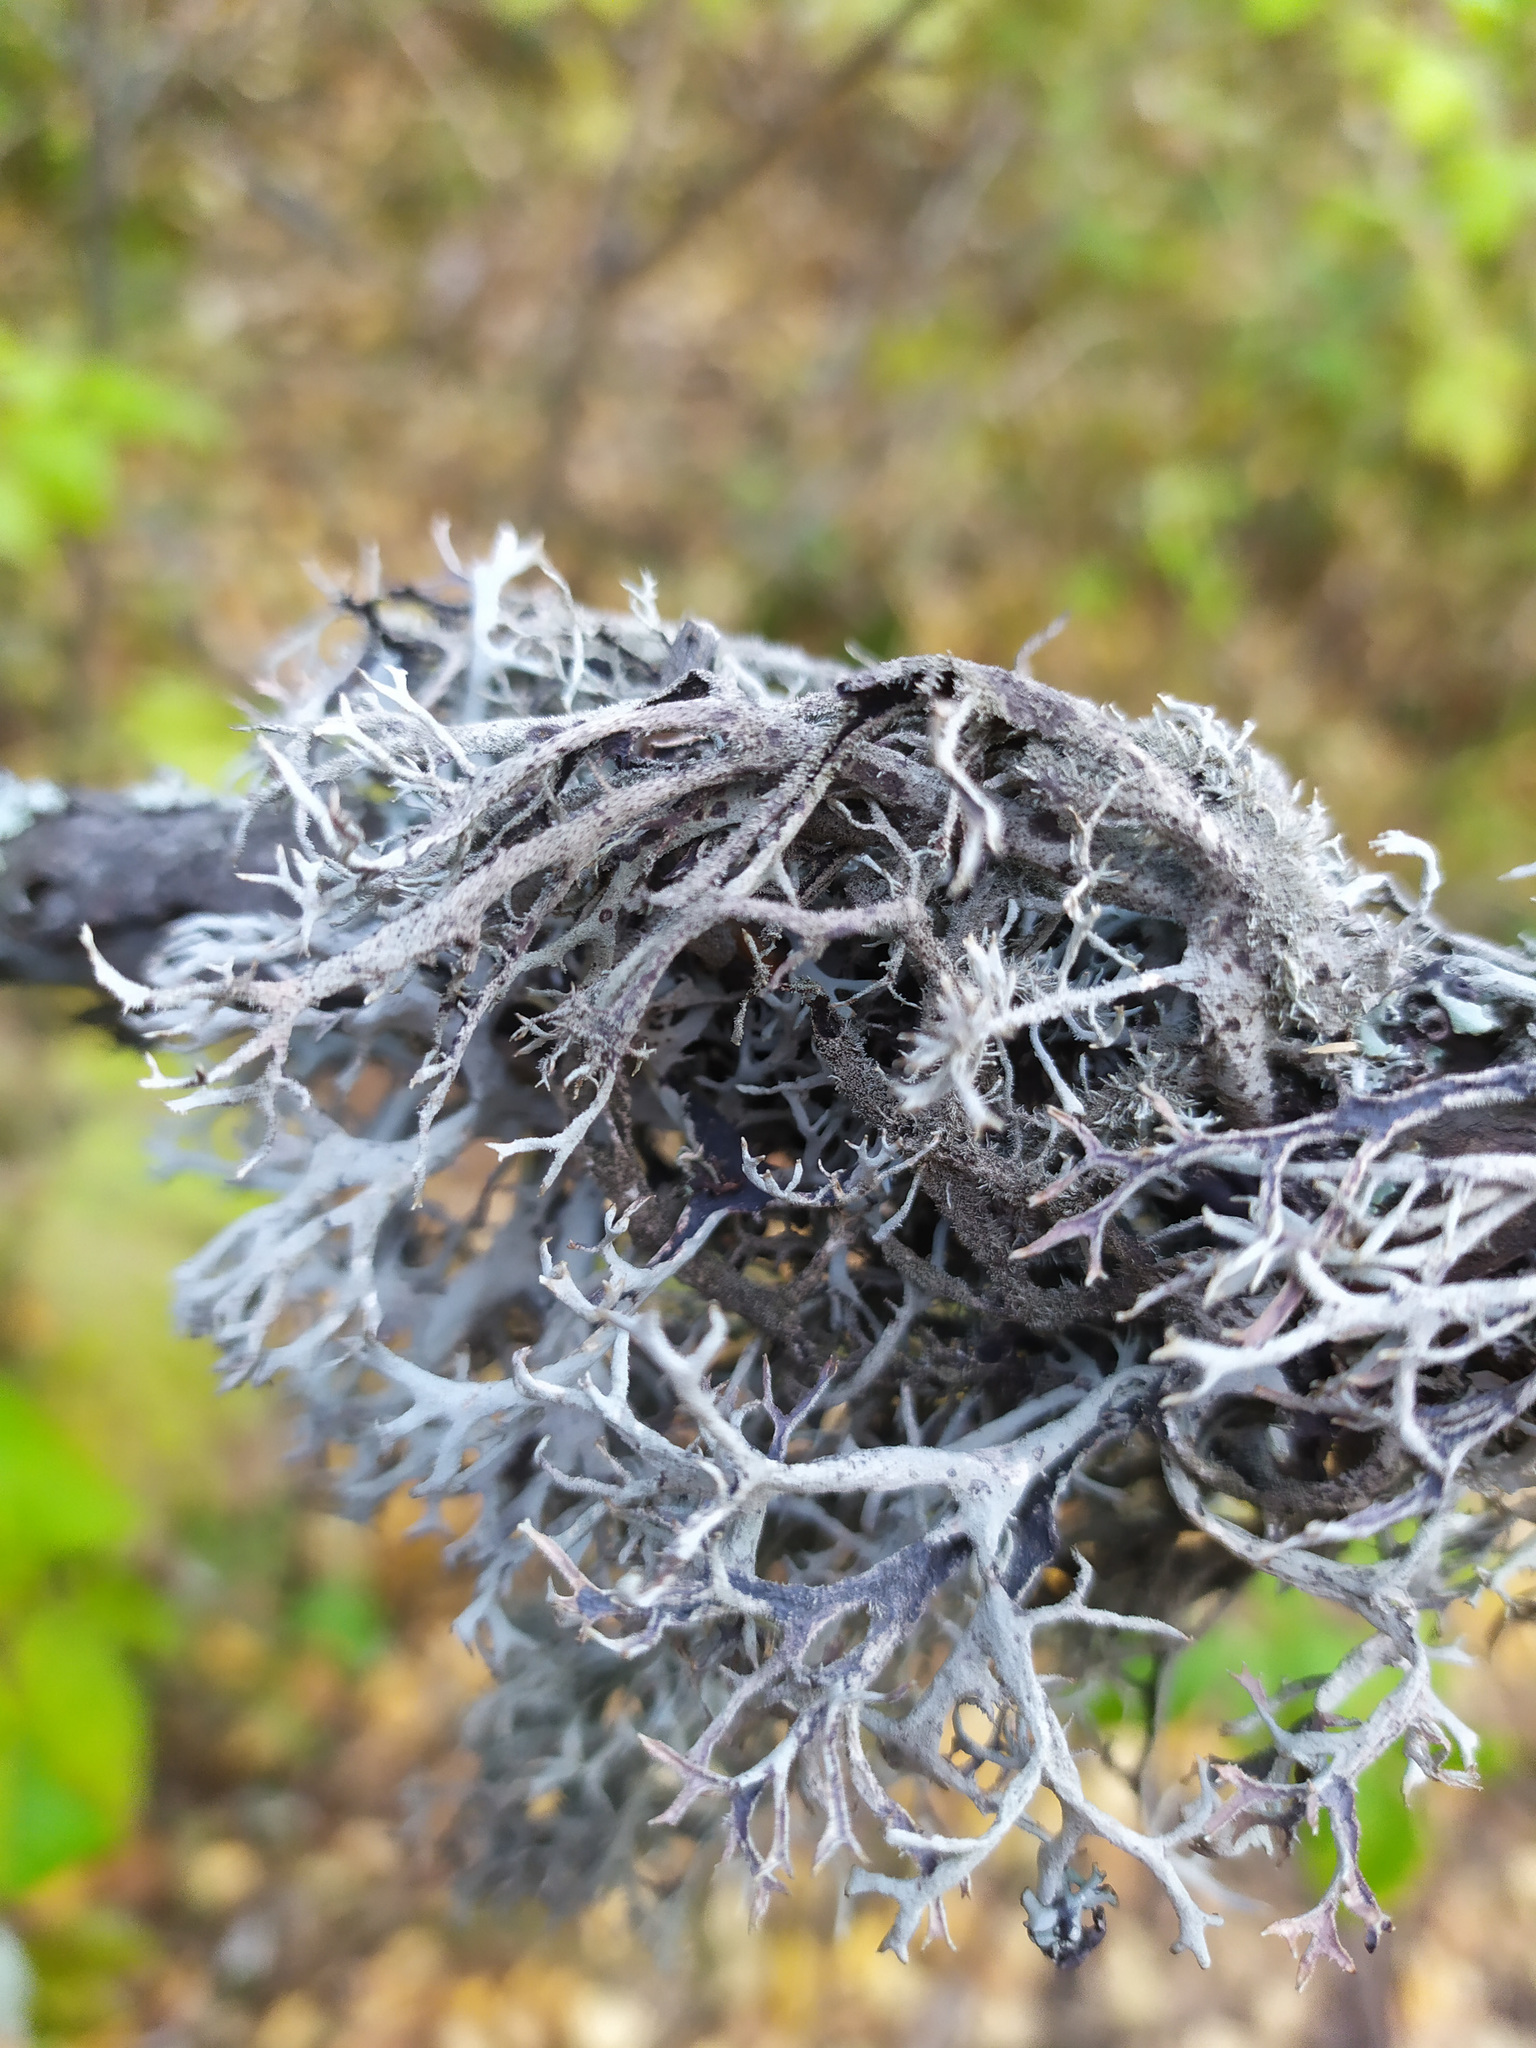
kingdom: Fungi
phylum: Ascomycota
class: Lecanoromycetes
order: Lecanorales
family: Parmeliaceae
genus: Pseudevernia
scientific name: Pseudevernia furfuracea
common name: Tree moss
